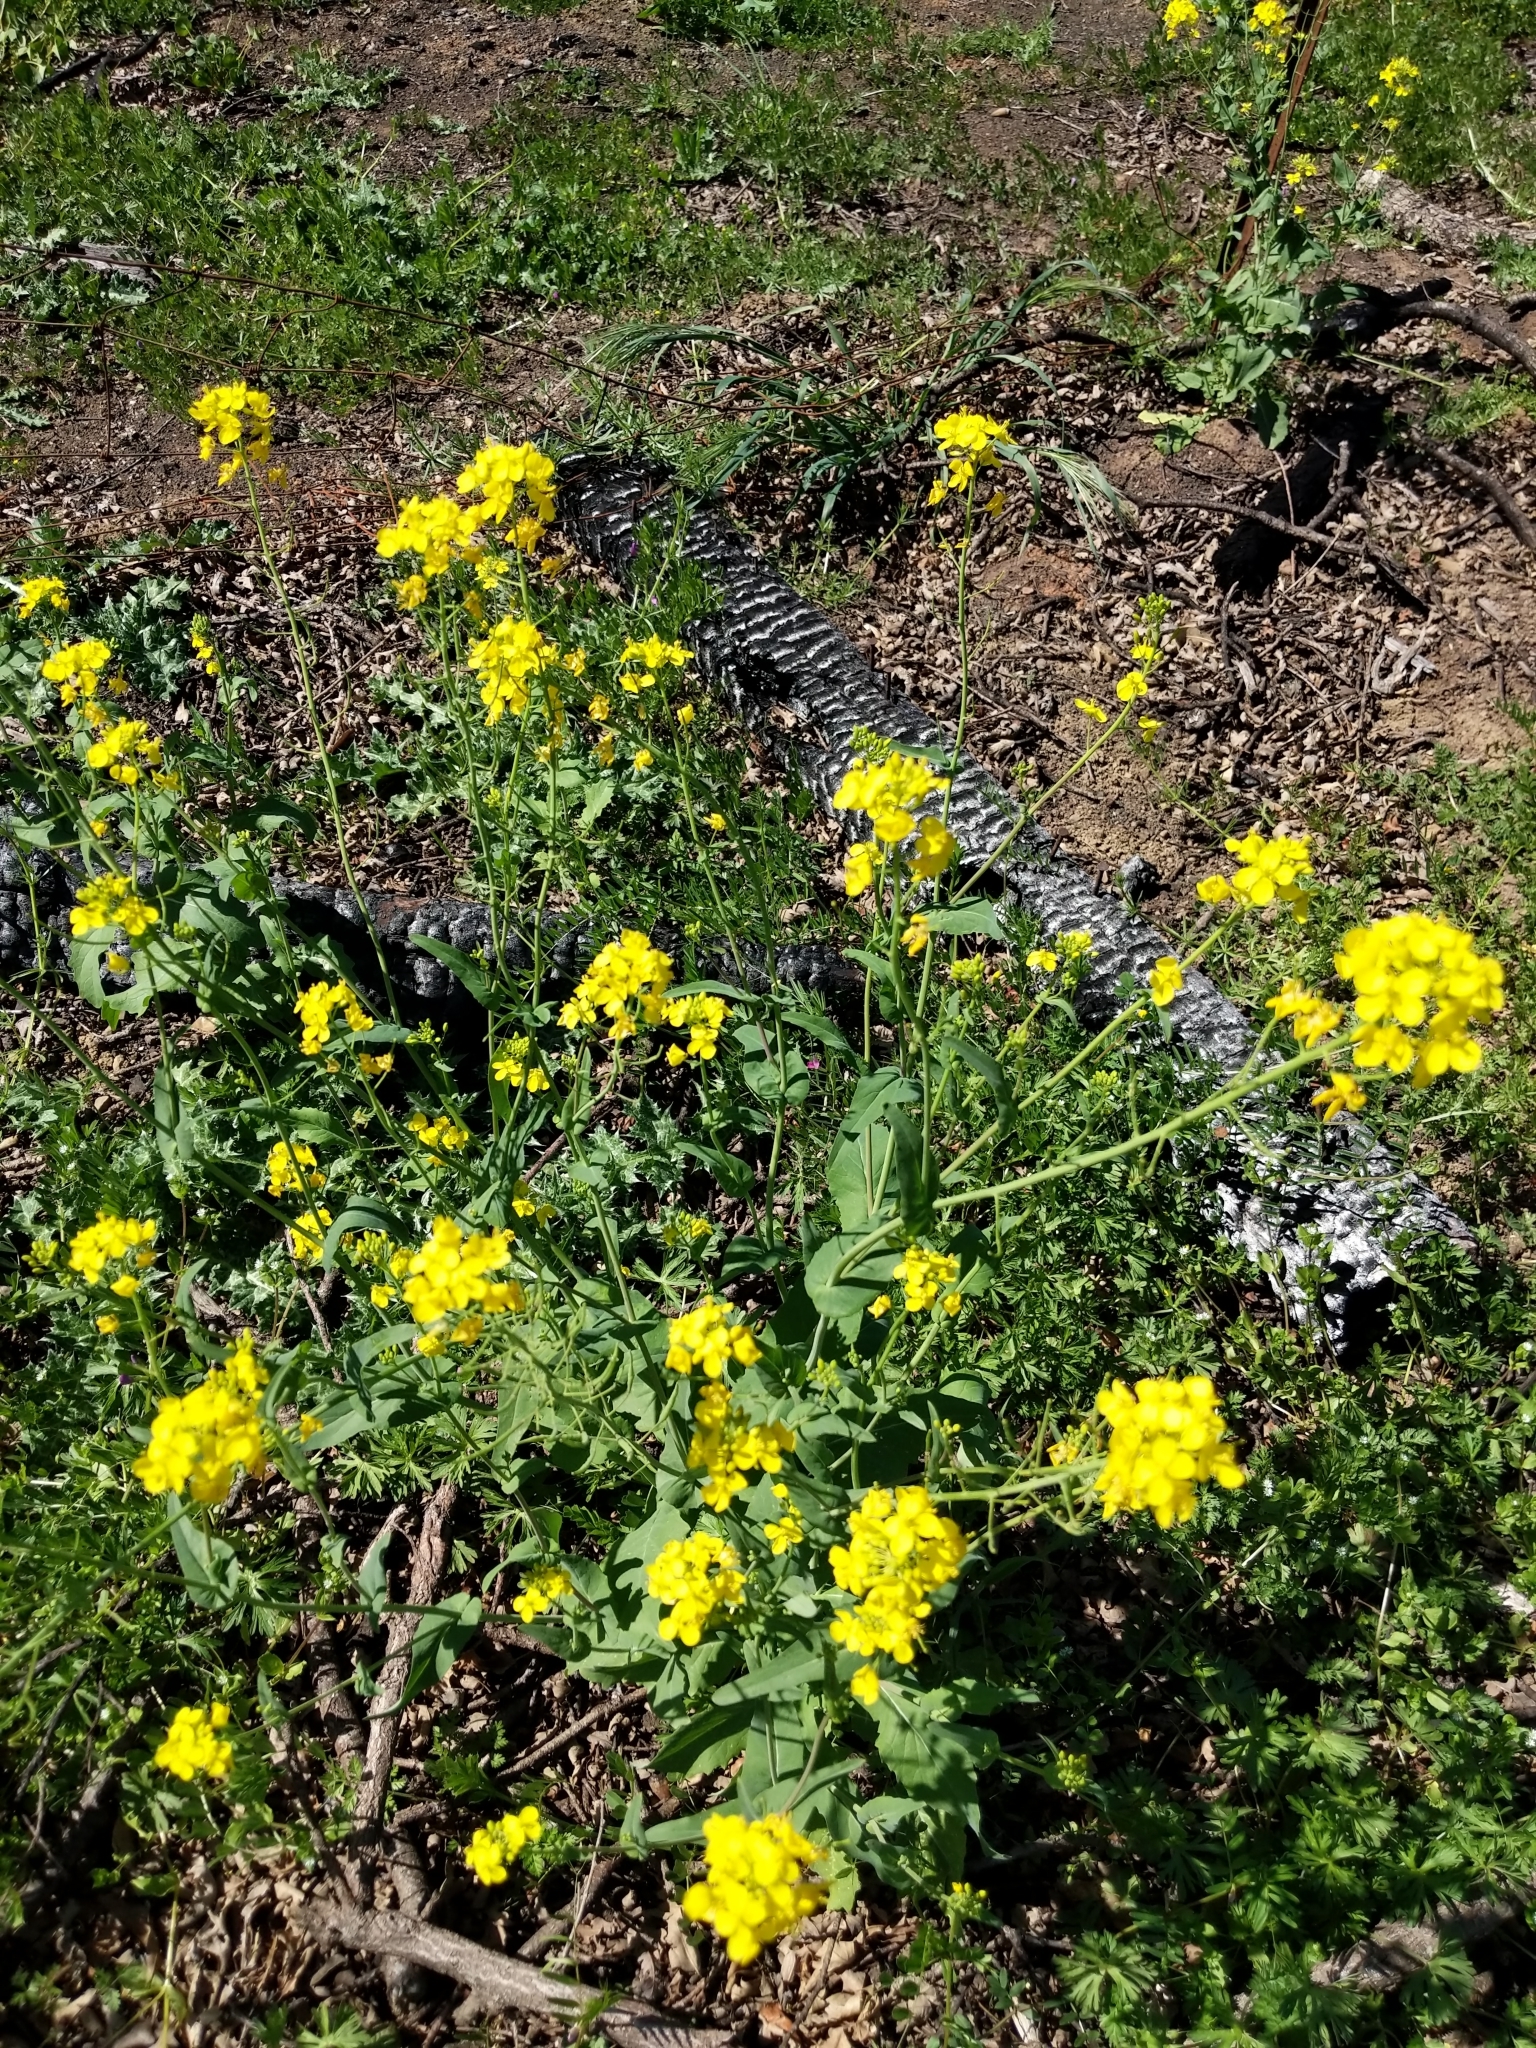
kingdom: Plantae
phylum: Tracheophyta
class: Magnoliopsida
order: Brassicales
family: Brassicaceae
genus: Brassica
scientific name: Brassica rapa
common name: Field mustard
